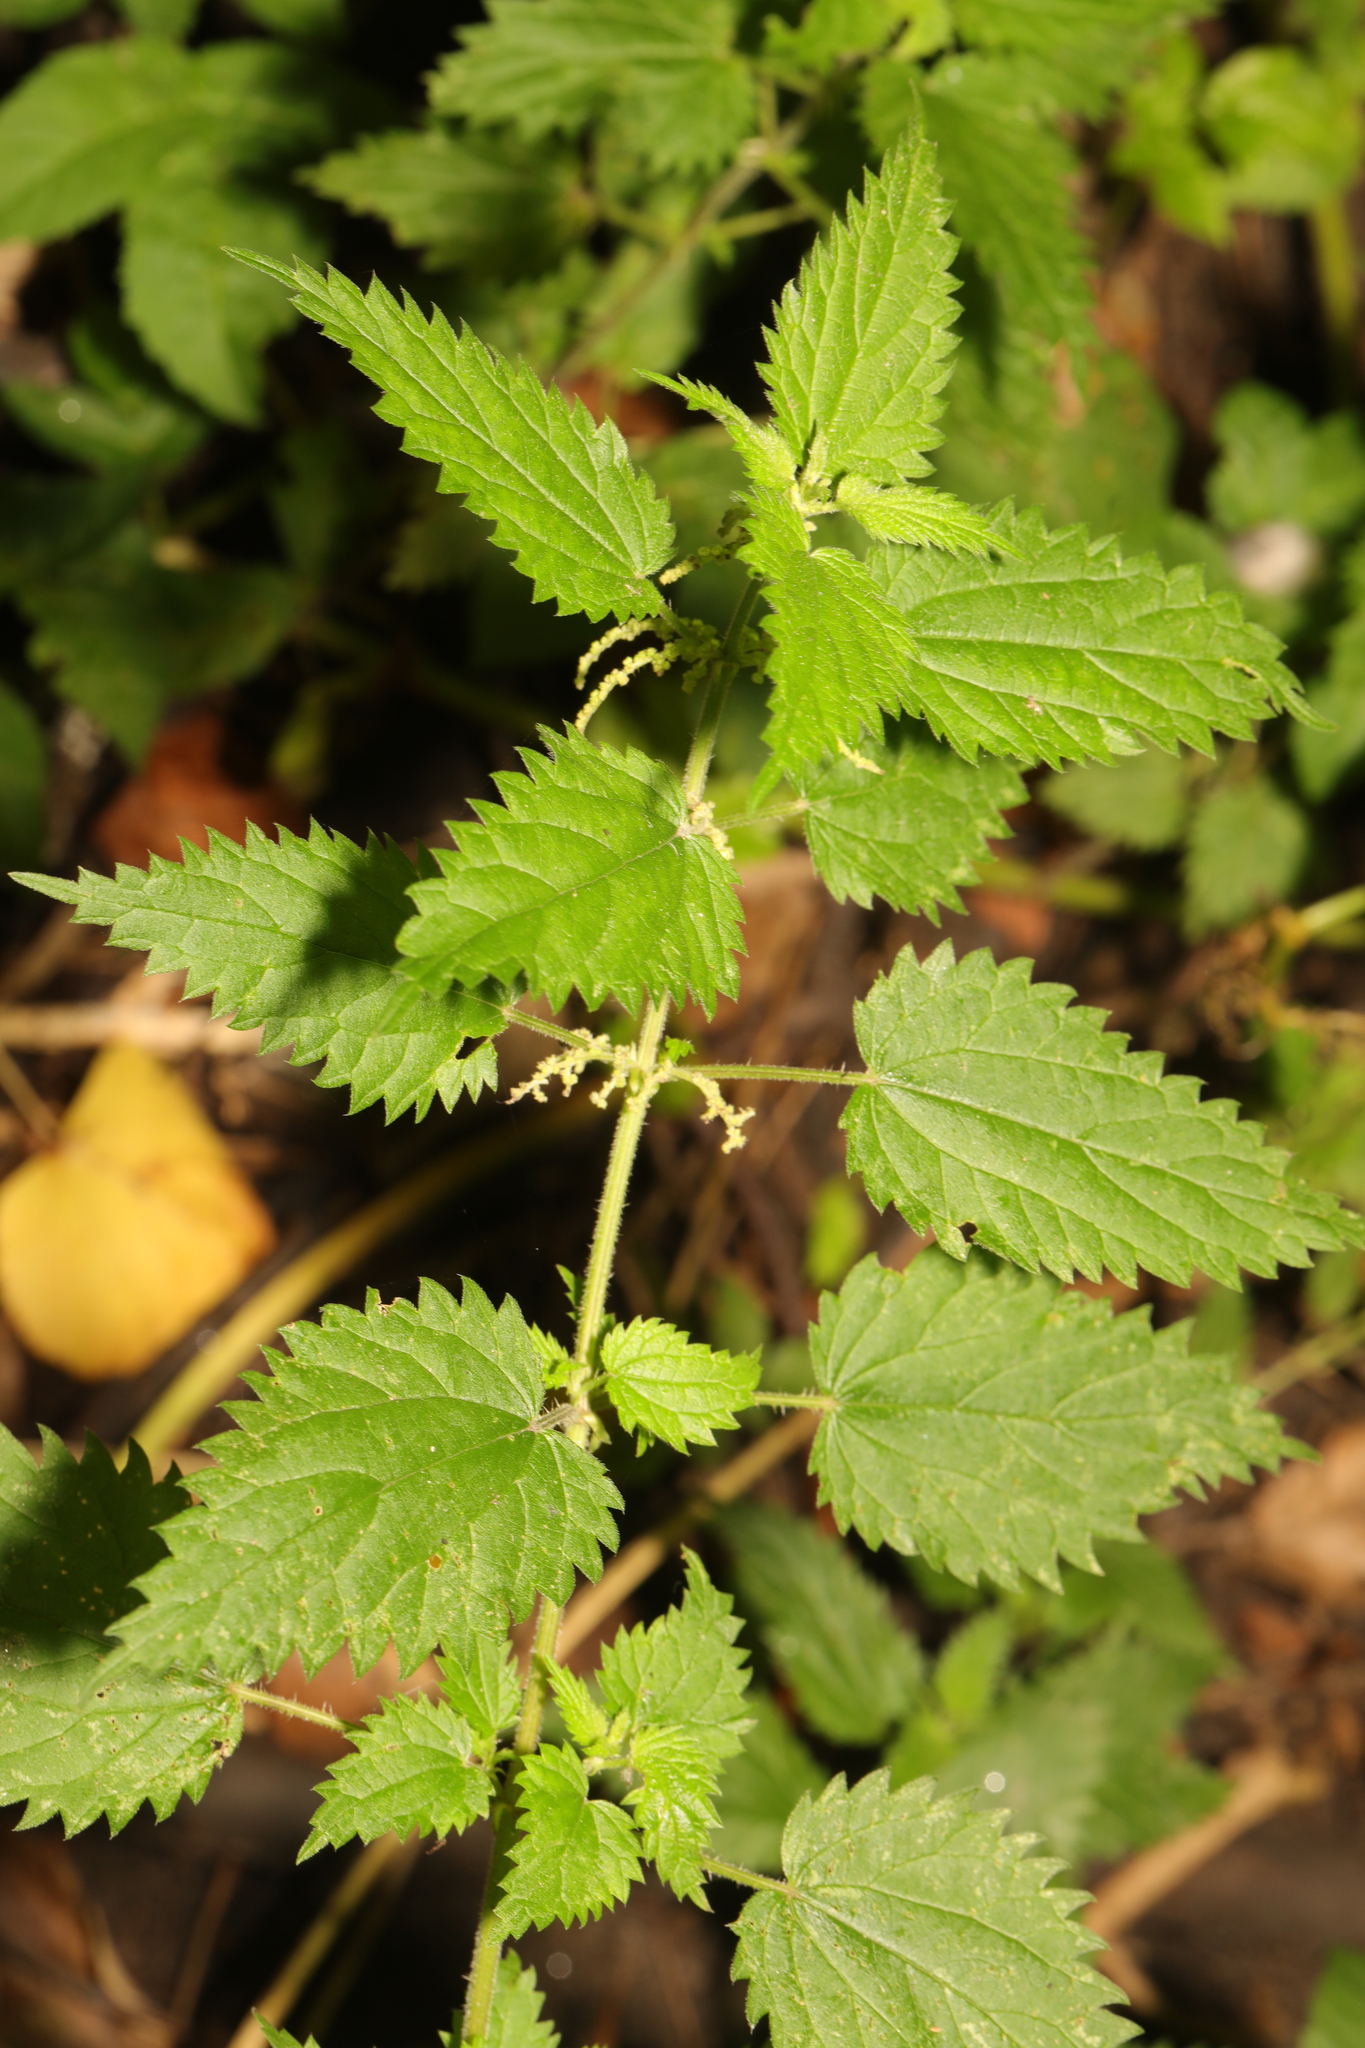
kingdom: Plantae
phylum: Tracheophyta
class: Magnoliopsida
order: Rosales
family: Urticaceae
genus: Urtica
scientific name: Urtica dioica
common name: Common nettle
